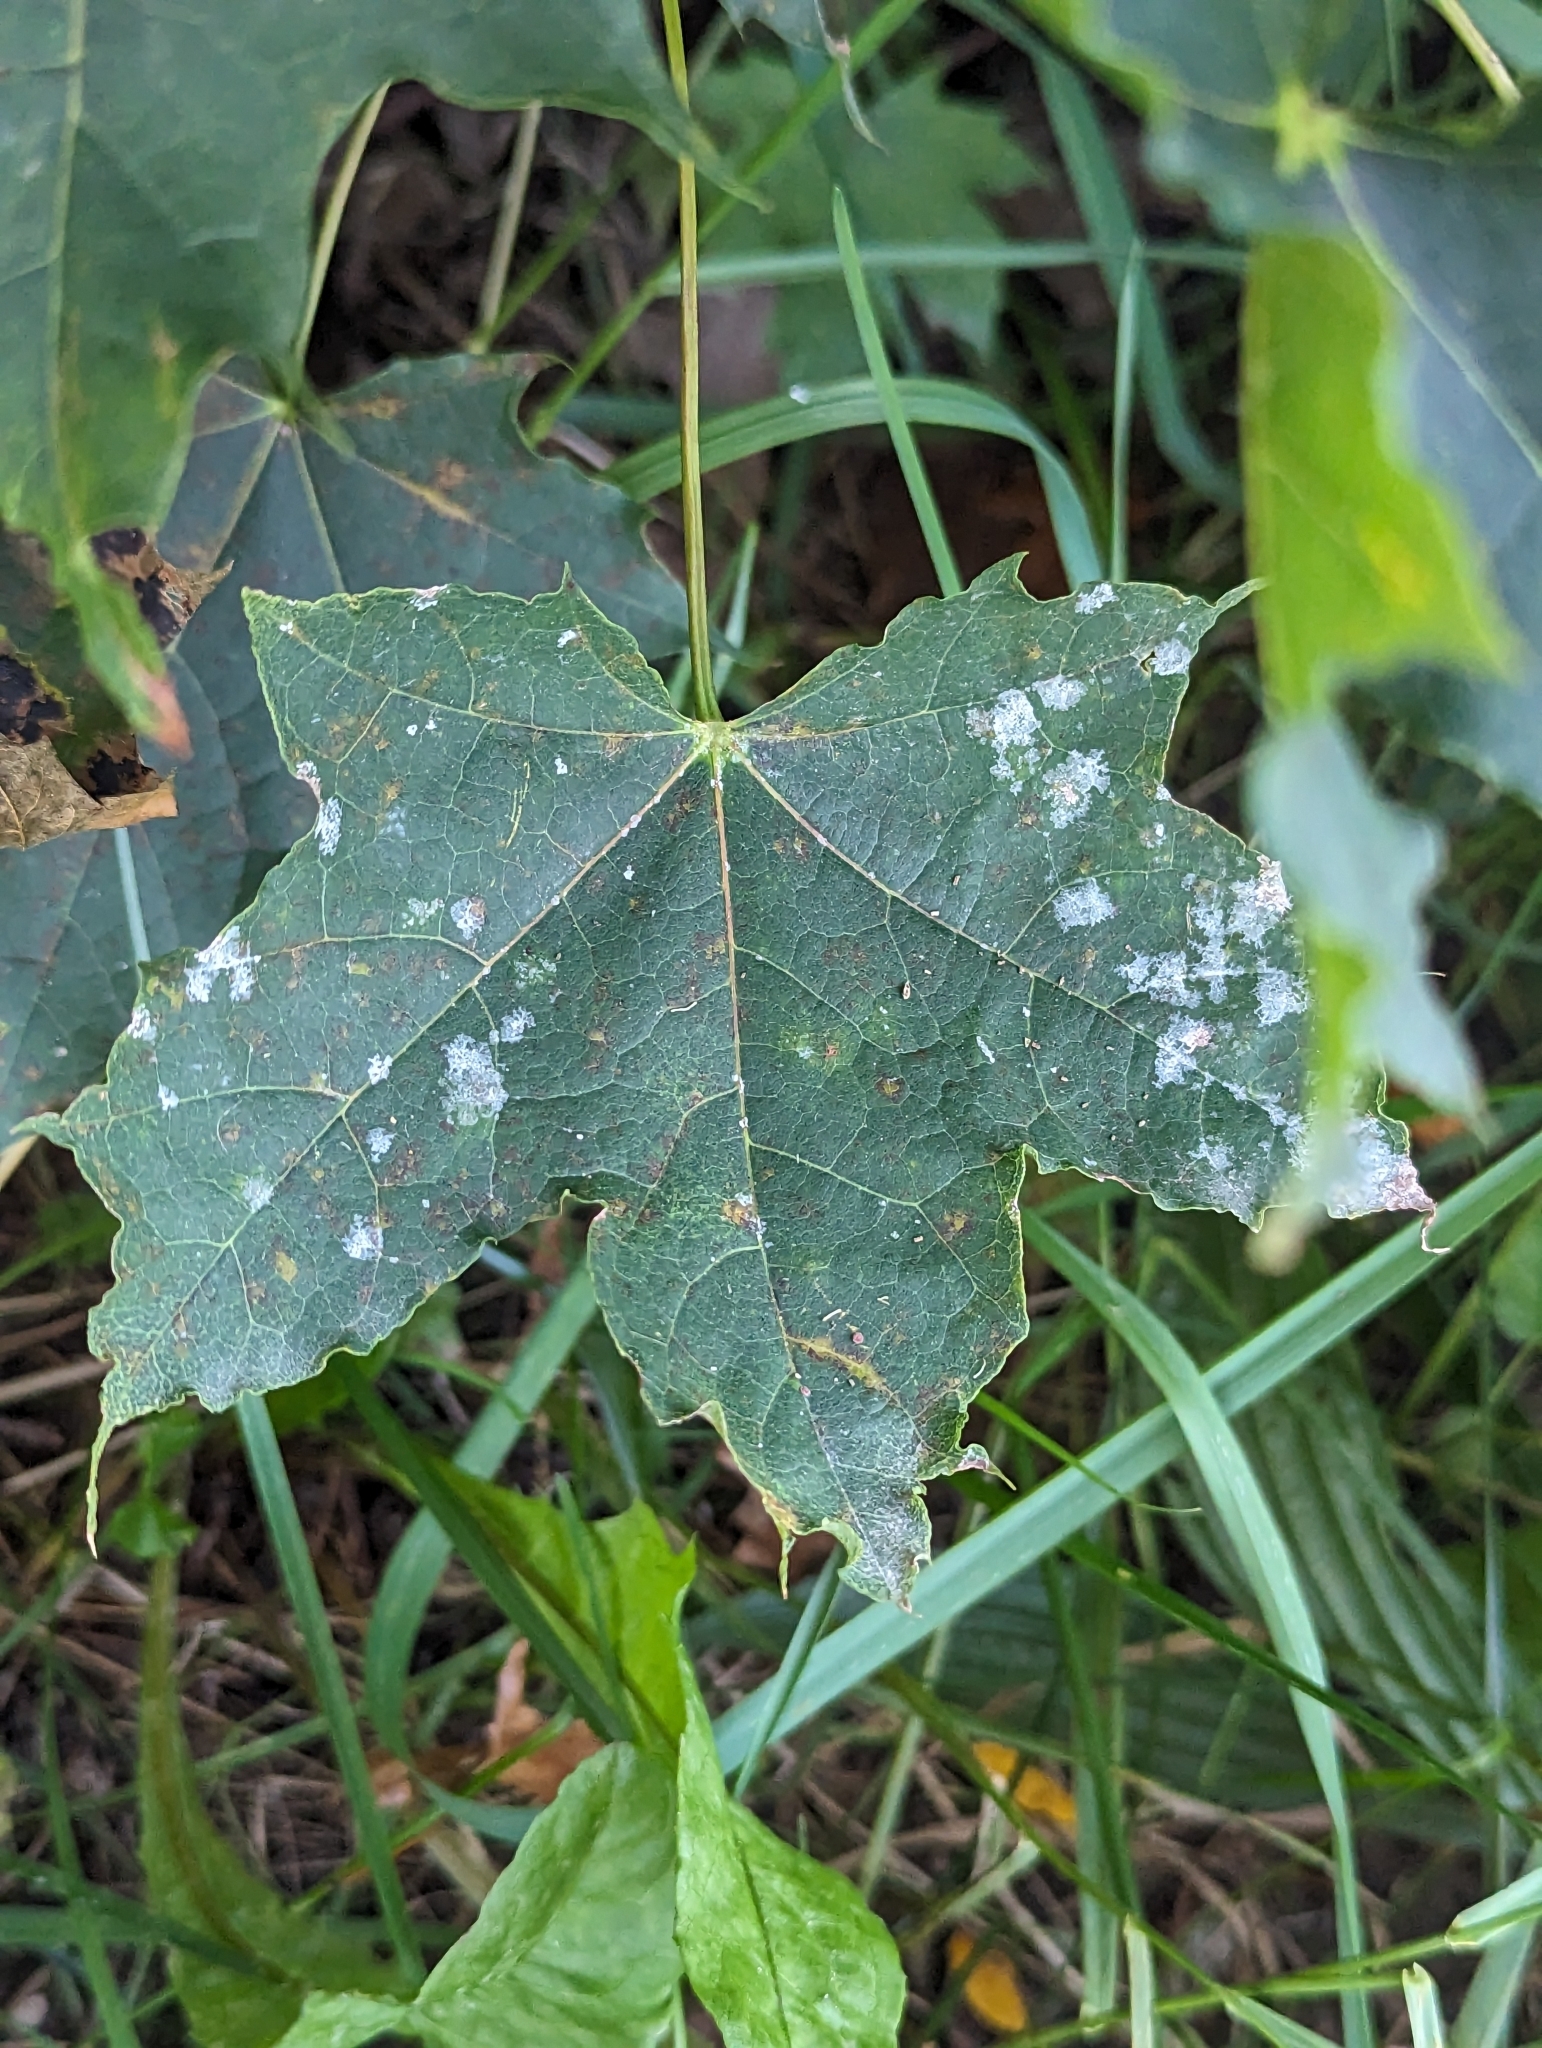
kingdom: Plantae
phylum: Tracheophyta
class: Magnoliopsida
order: Sapindales
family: Sapindaceae
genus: Acer
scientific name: Acer platanoides
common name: Norway maple
